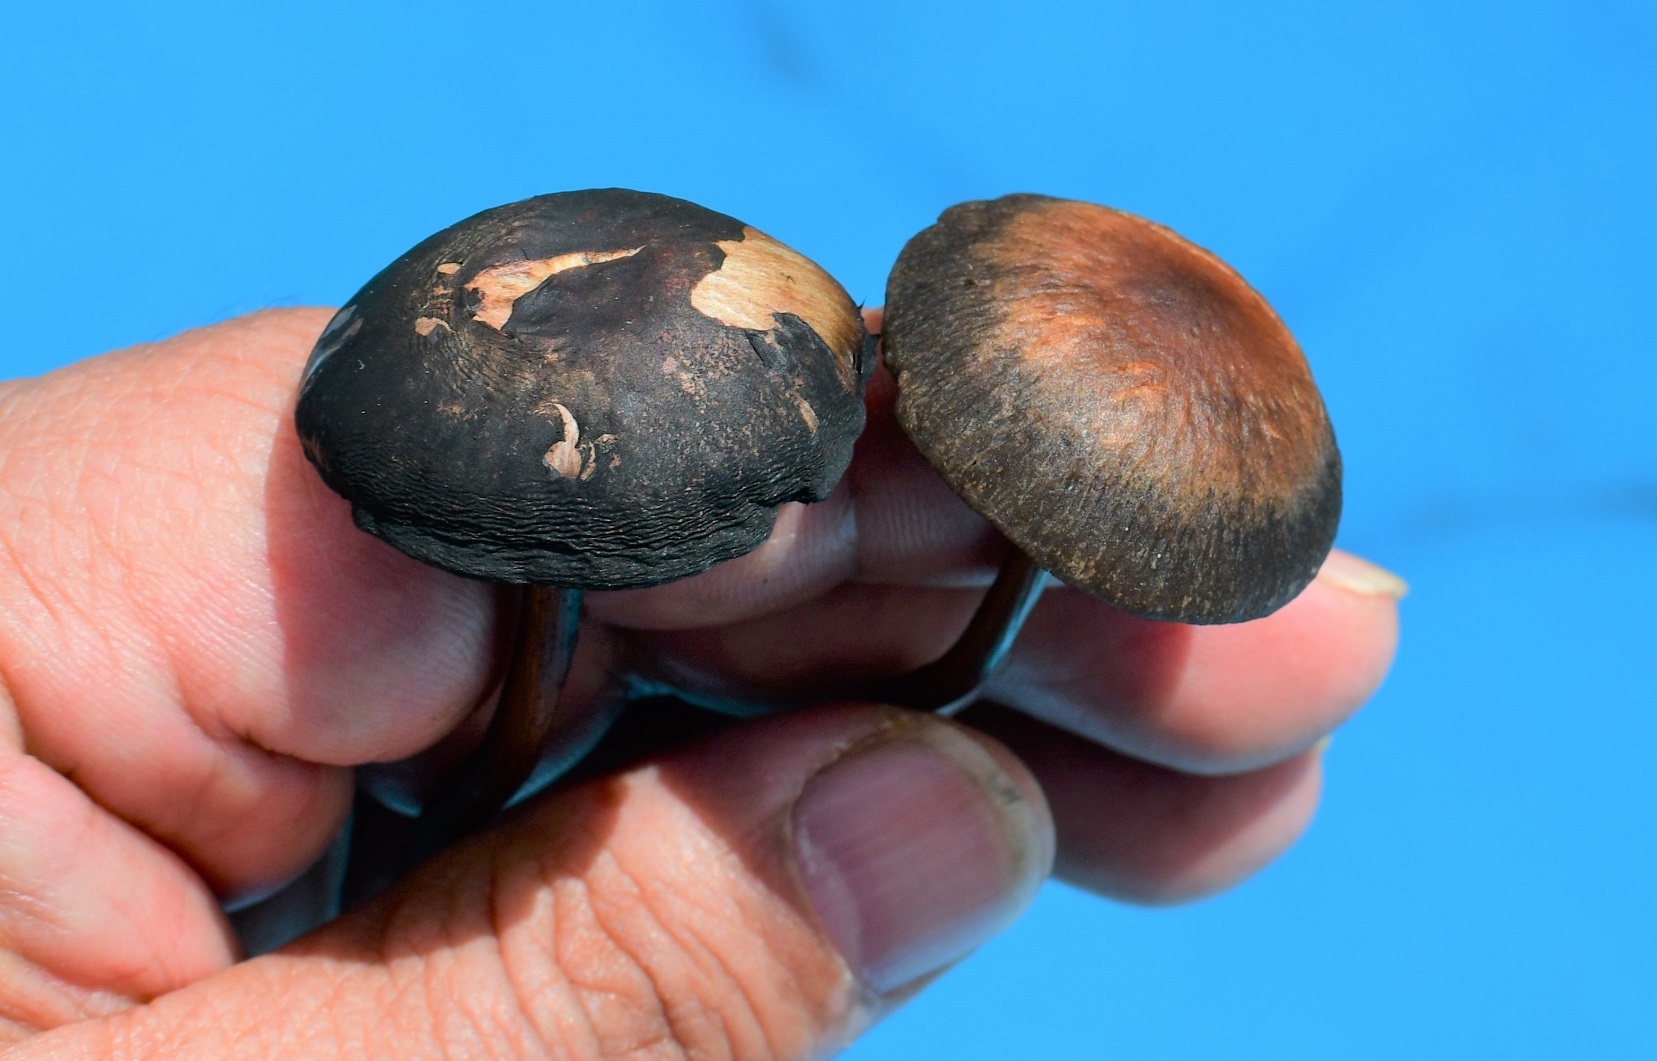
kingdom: Fungi
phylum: Basidiomycota
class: Agaricomycetes
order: Agaricales
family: Bolbitiaceae
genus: Panaeolus
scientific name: Panaeolus cinctulus
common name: Banded mottlegill
